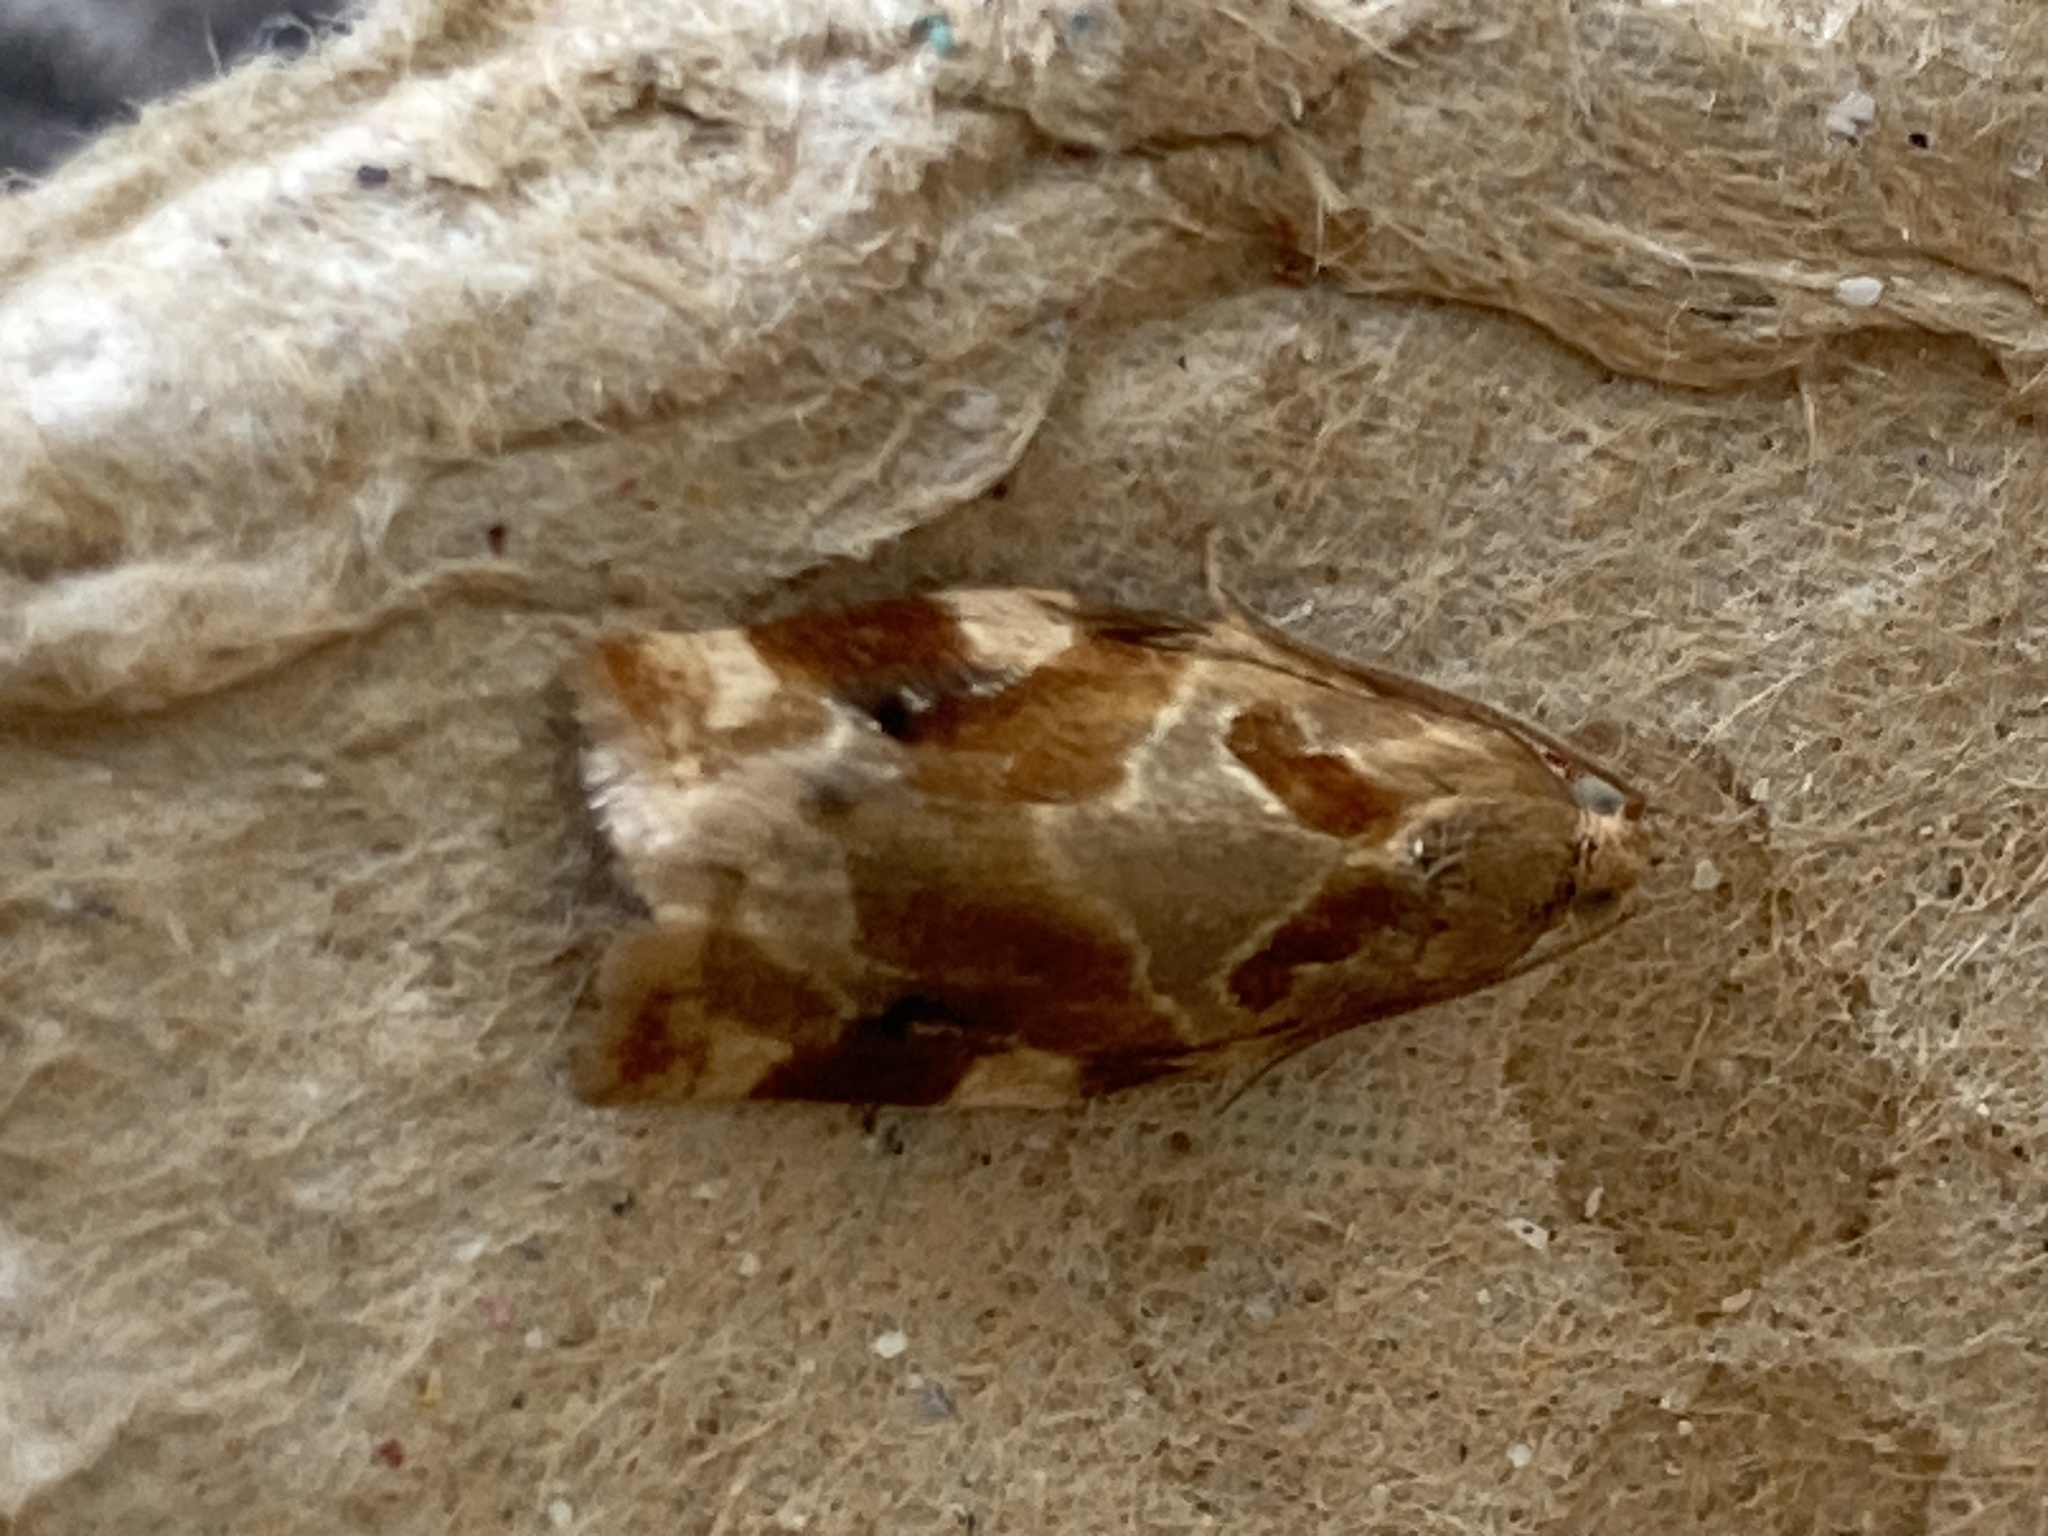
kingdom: Animalia
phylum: Arthropoda
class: Insecta
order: Lepidoptera
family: Tortricidae
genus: Archips
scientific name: Archips xylosteana
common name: Variegated golden tortrix
